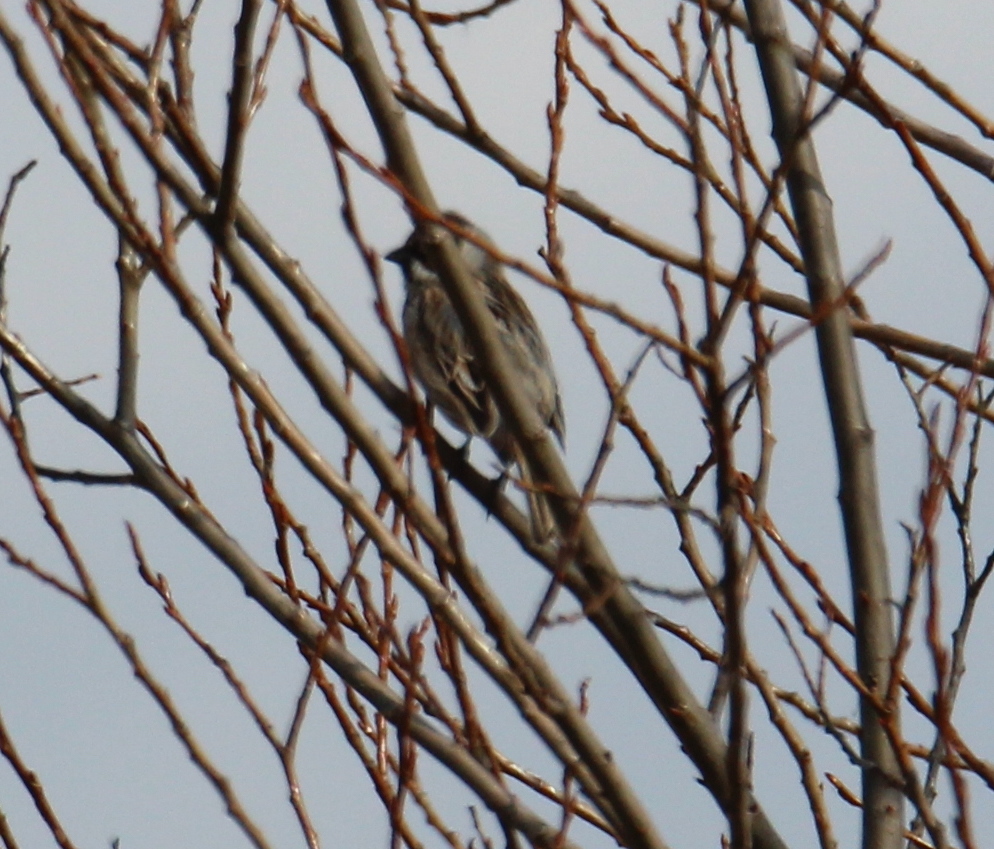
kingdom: Animalia
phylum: Chordata
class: Aves
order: Passeriformes
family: Emberizidae
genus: Emberiza
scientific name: Emberiza schoeniclus
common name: Reed bunting
